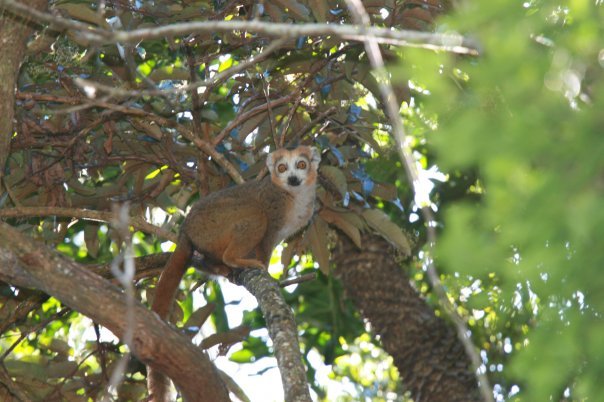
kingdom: Animalia
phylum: Chordata
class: Mammalia
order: Primates
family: Lemuridae
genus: Eulemur
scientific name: Eulemur coronatus
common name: Crowned lemur
